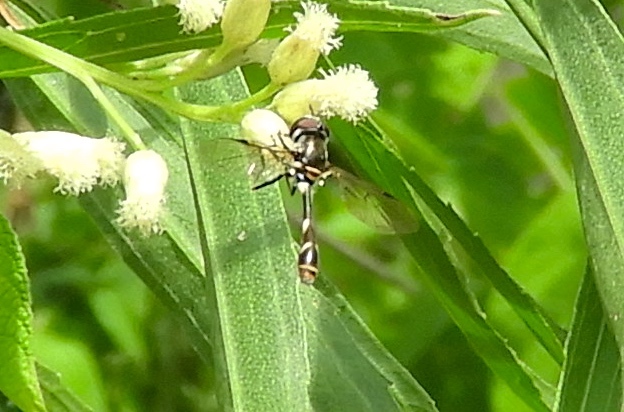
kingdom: Animalia
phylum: Arthropoda
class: Insecta
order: Diptera
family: Syrphidae
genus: Dioprosopa
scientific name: Dioprosopa clavatus
